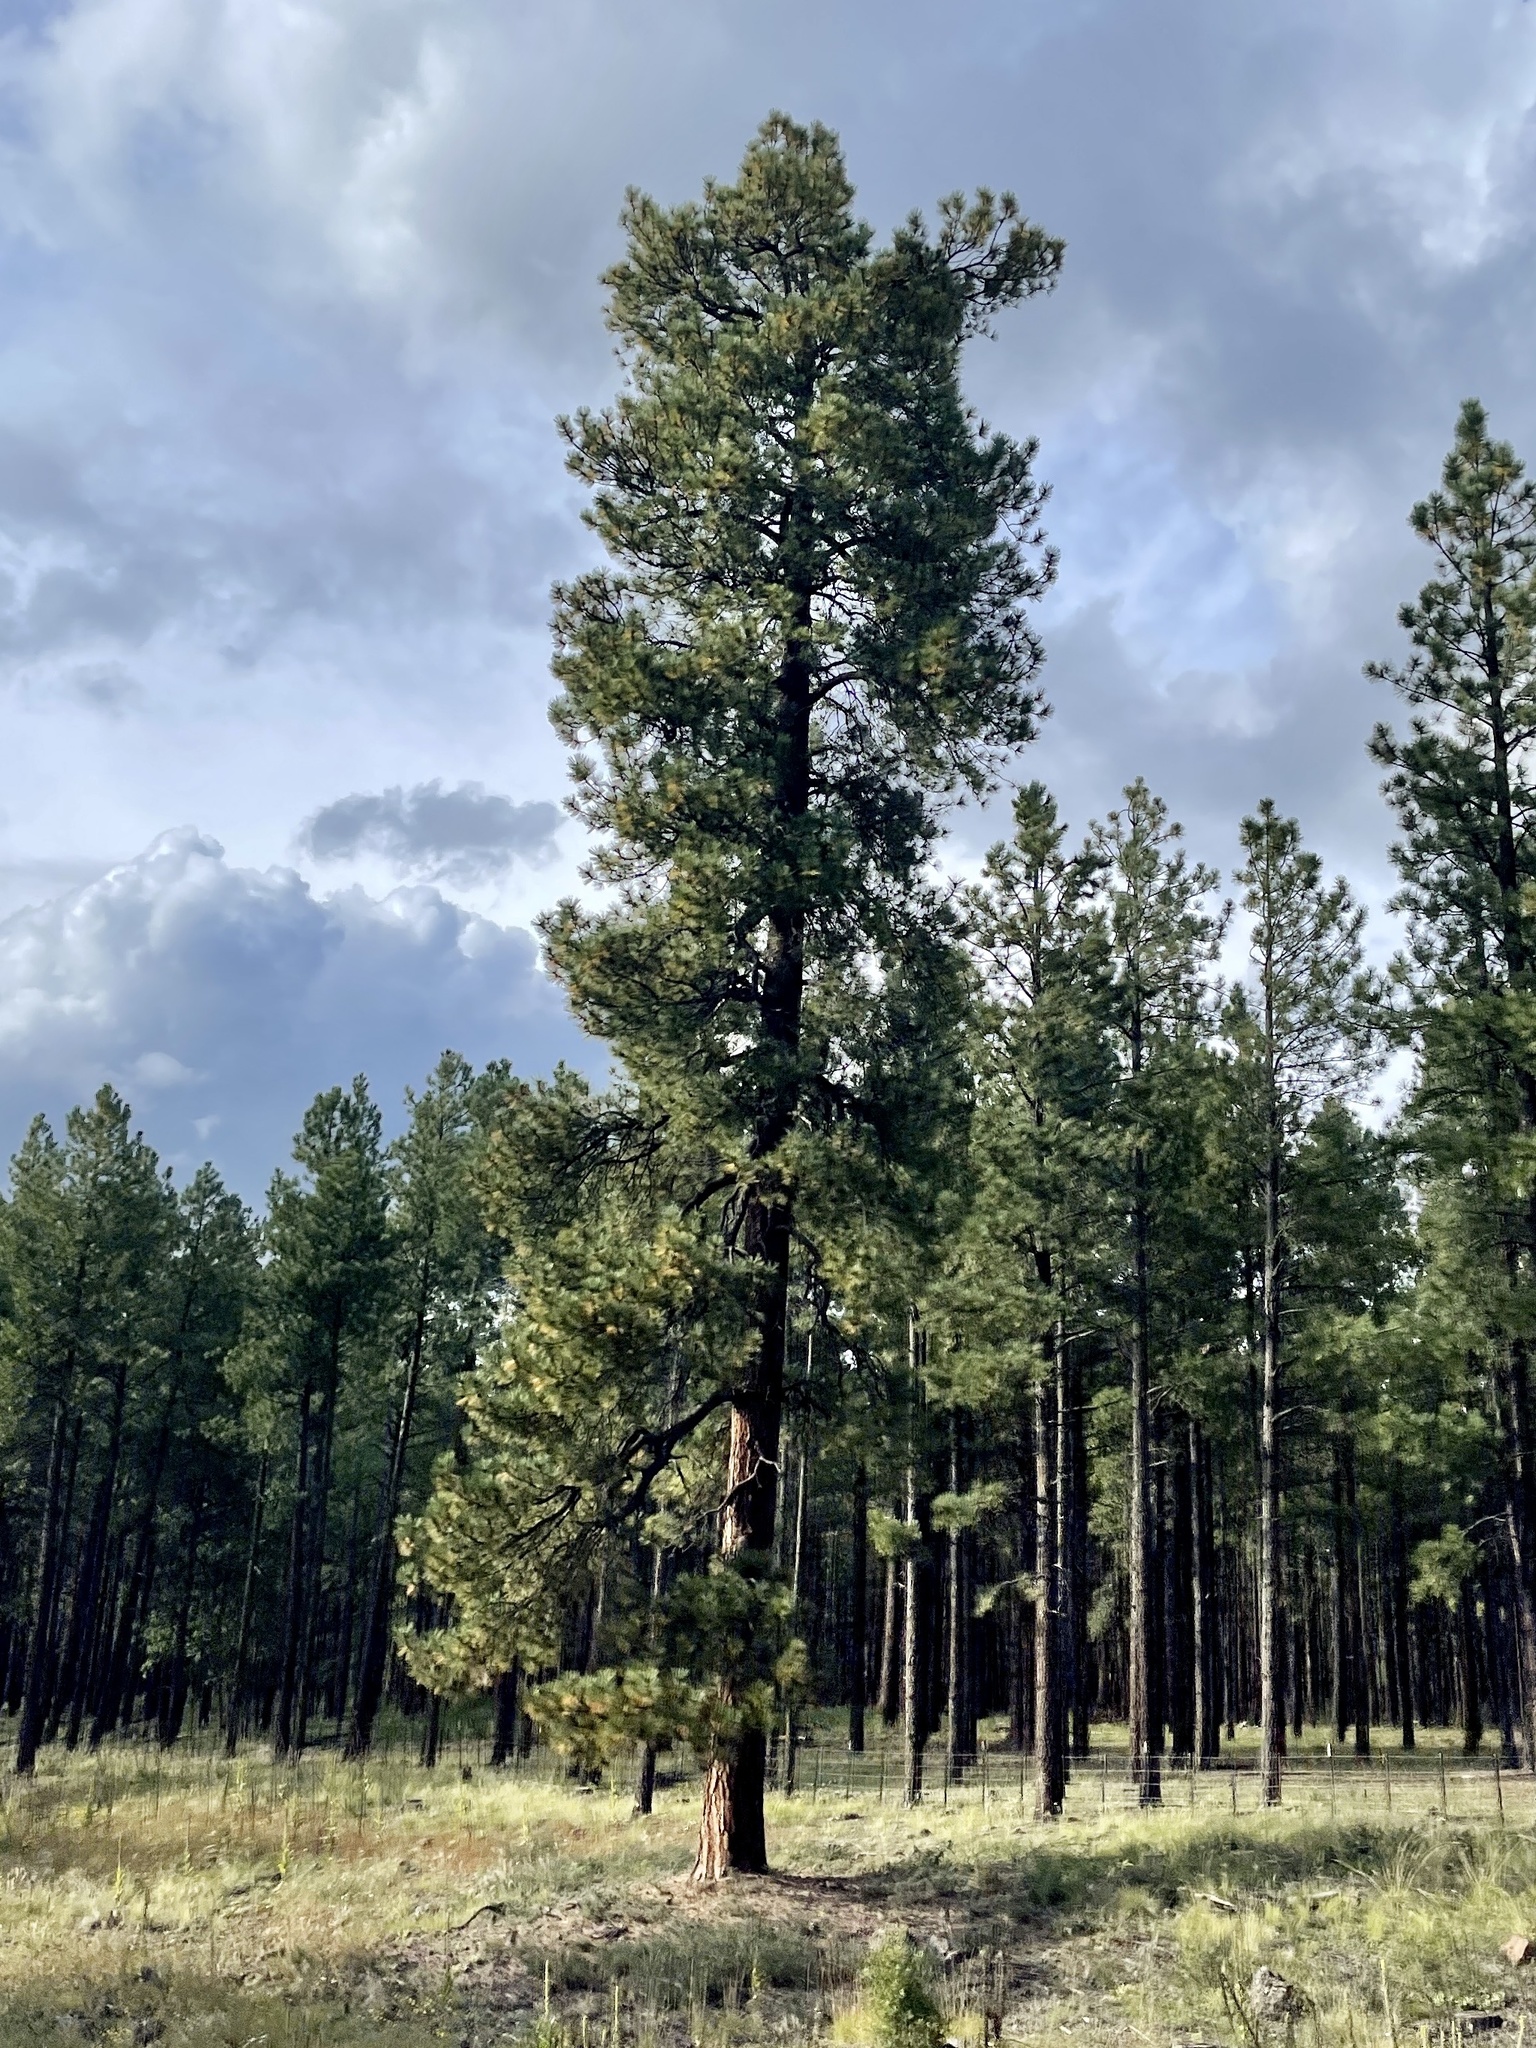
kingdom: Plantae
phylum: Tracheophyta
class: Pinopsida
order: Pinales
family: Pinaceae
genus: Pinus
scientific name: Pinus ponderosa
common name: Western yellow-pine
